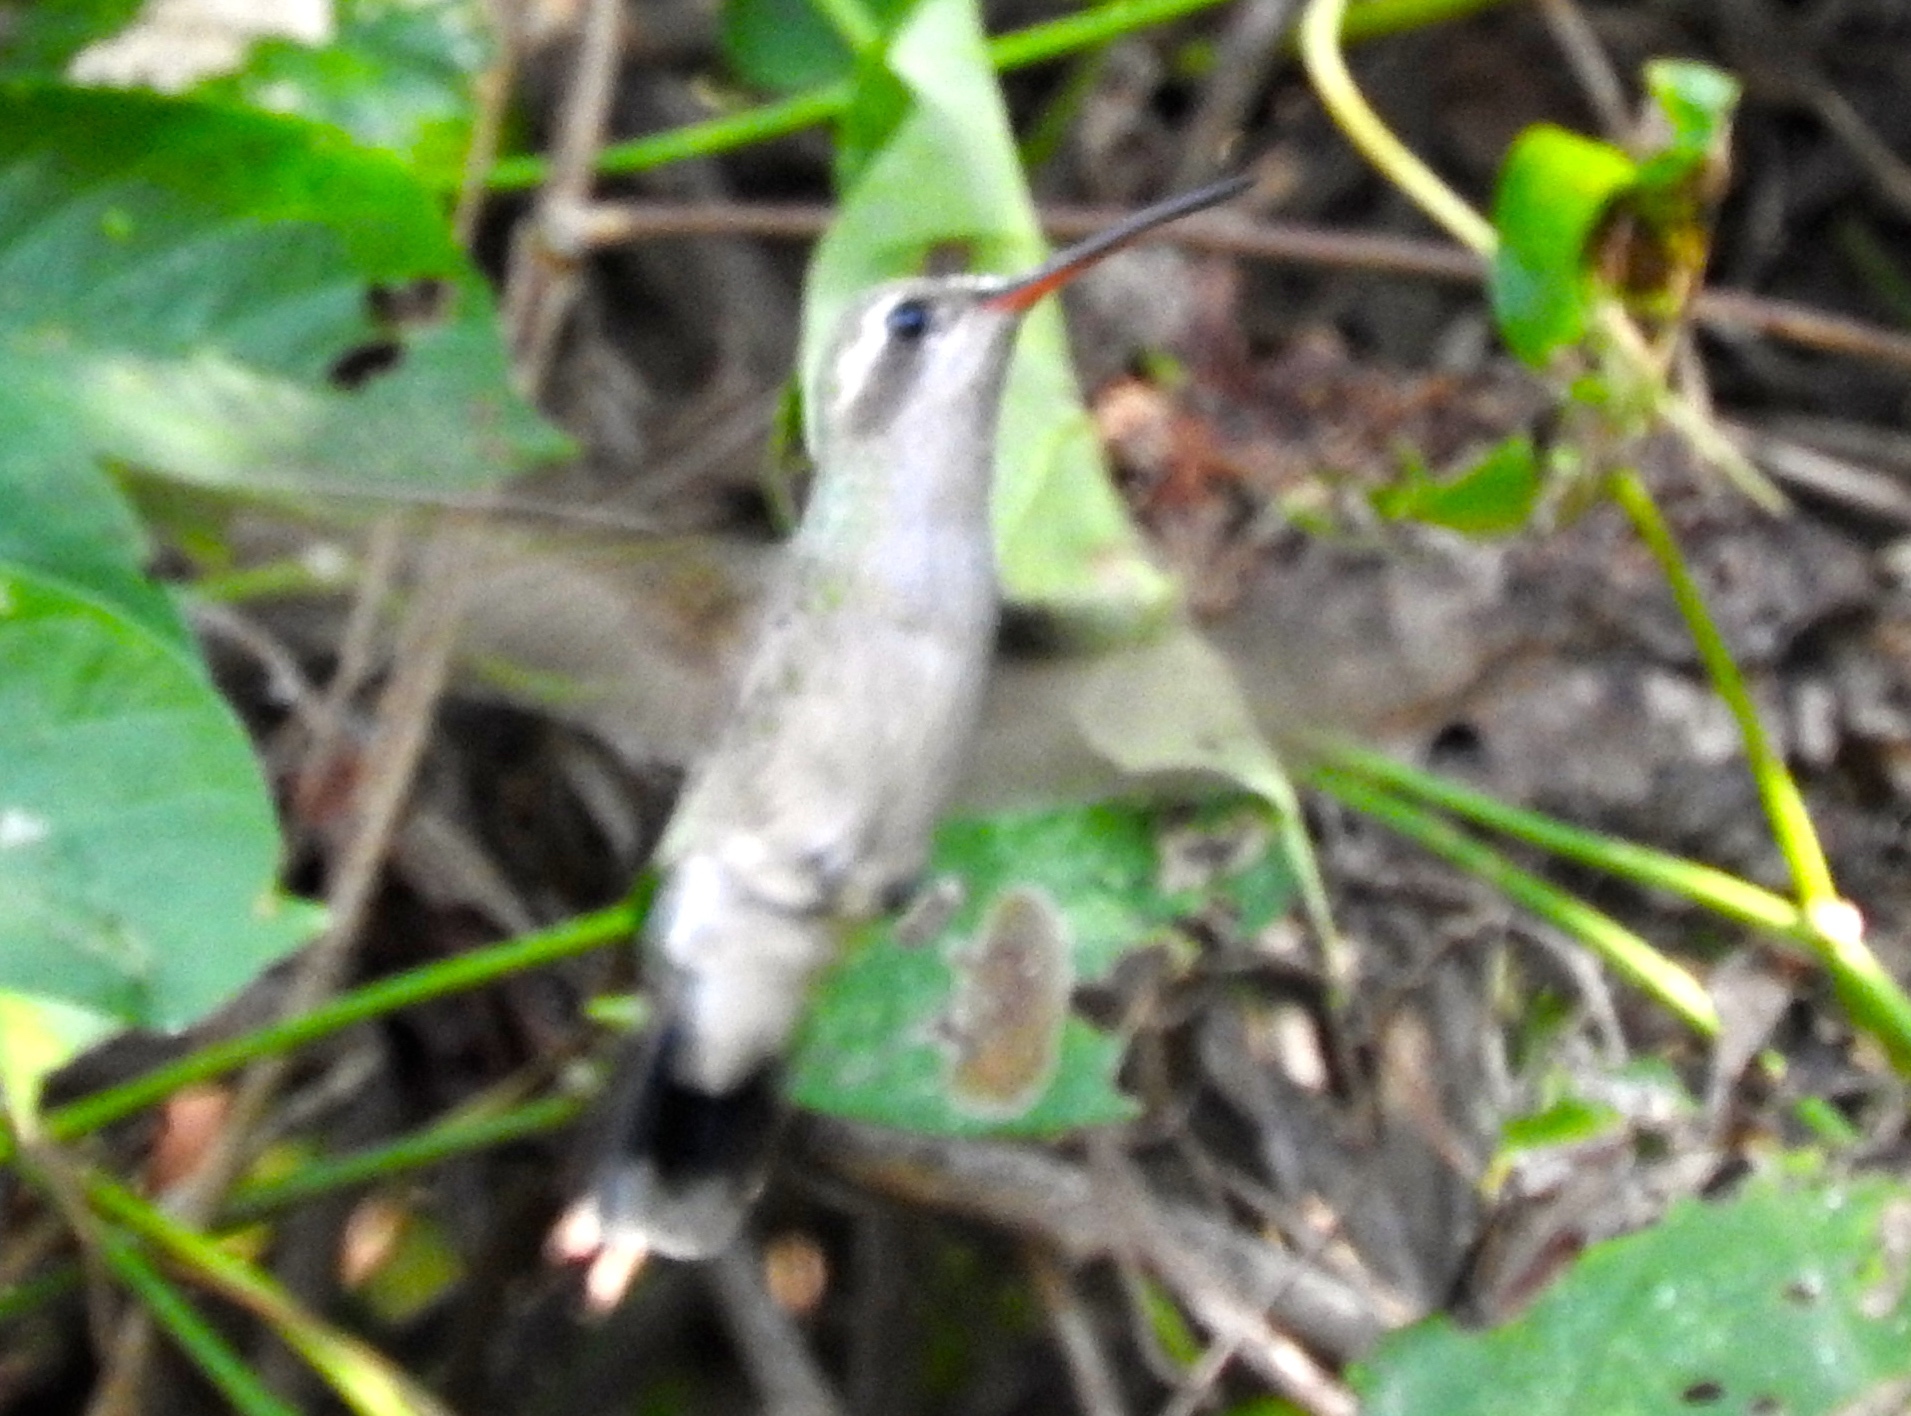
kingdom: Animalia
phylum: Chordata
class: Aves
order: Apodiformes
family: Trochilidae
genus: Cynanthus
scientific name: Cynanthus latirostris
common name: Broad-billed hummingbird
